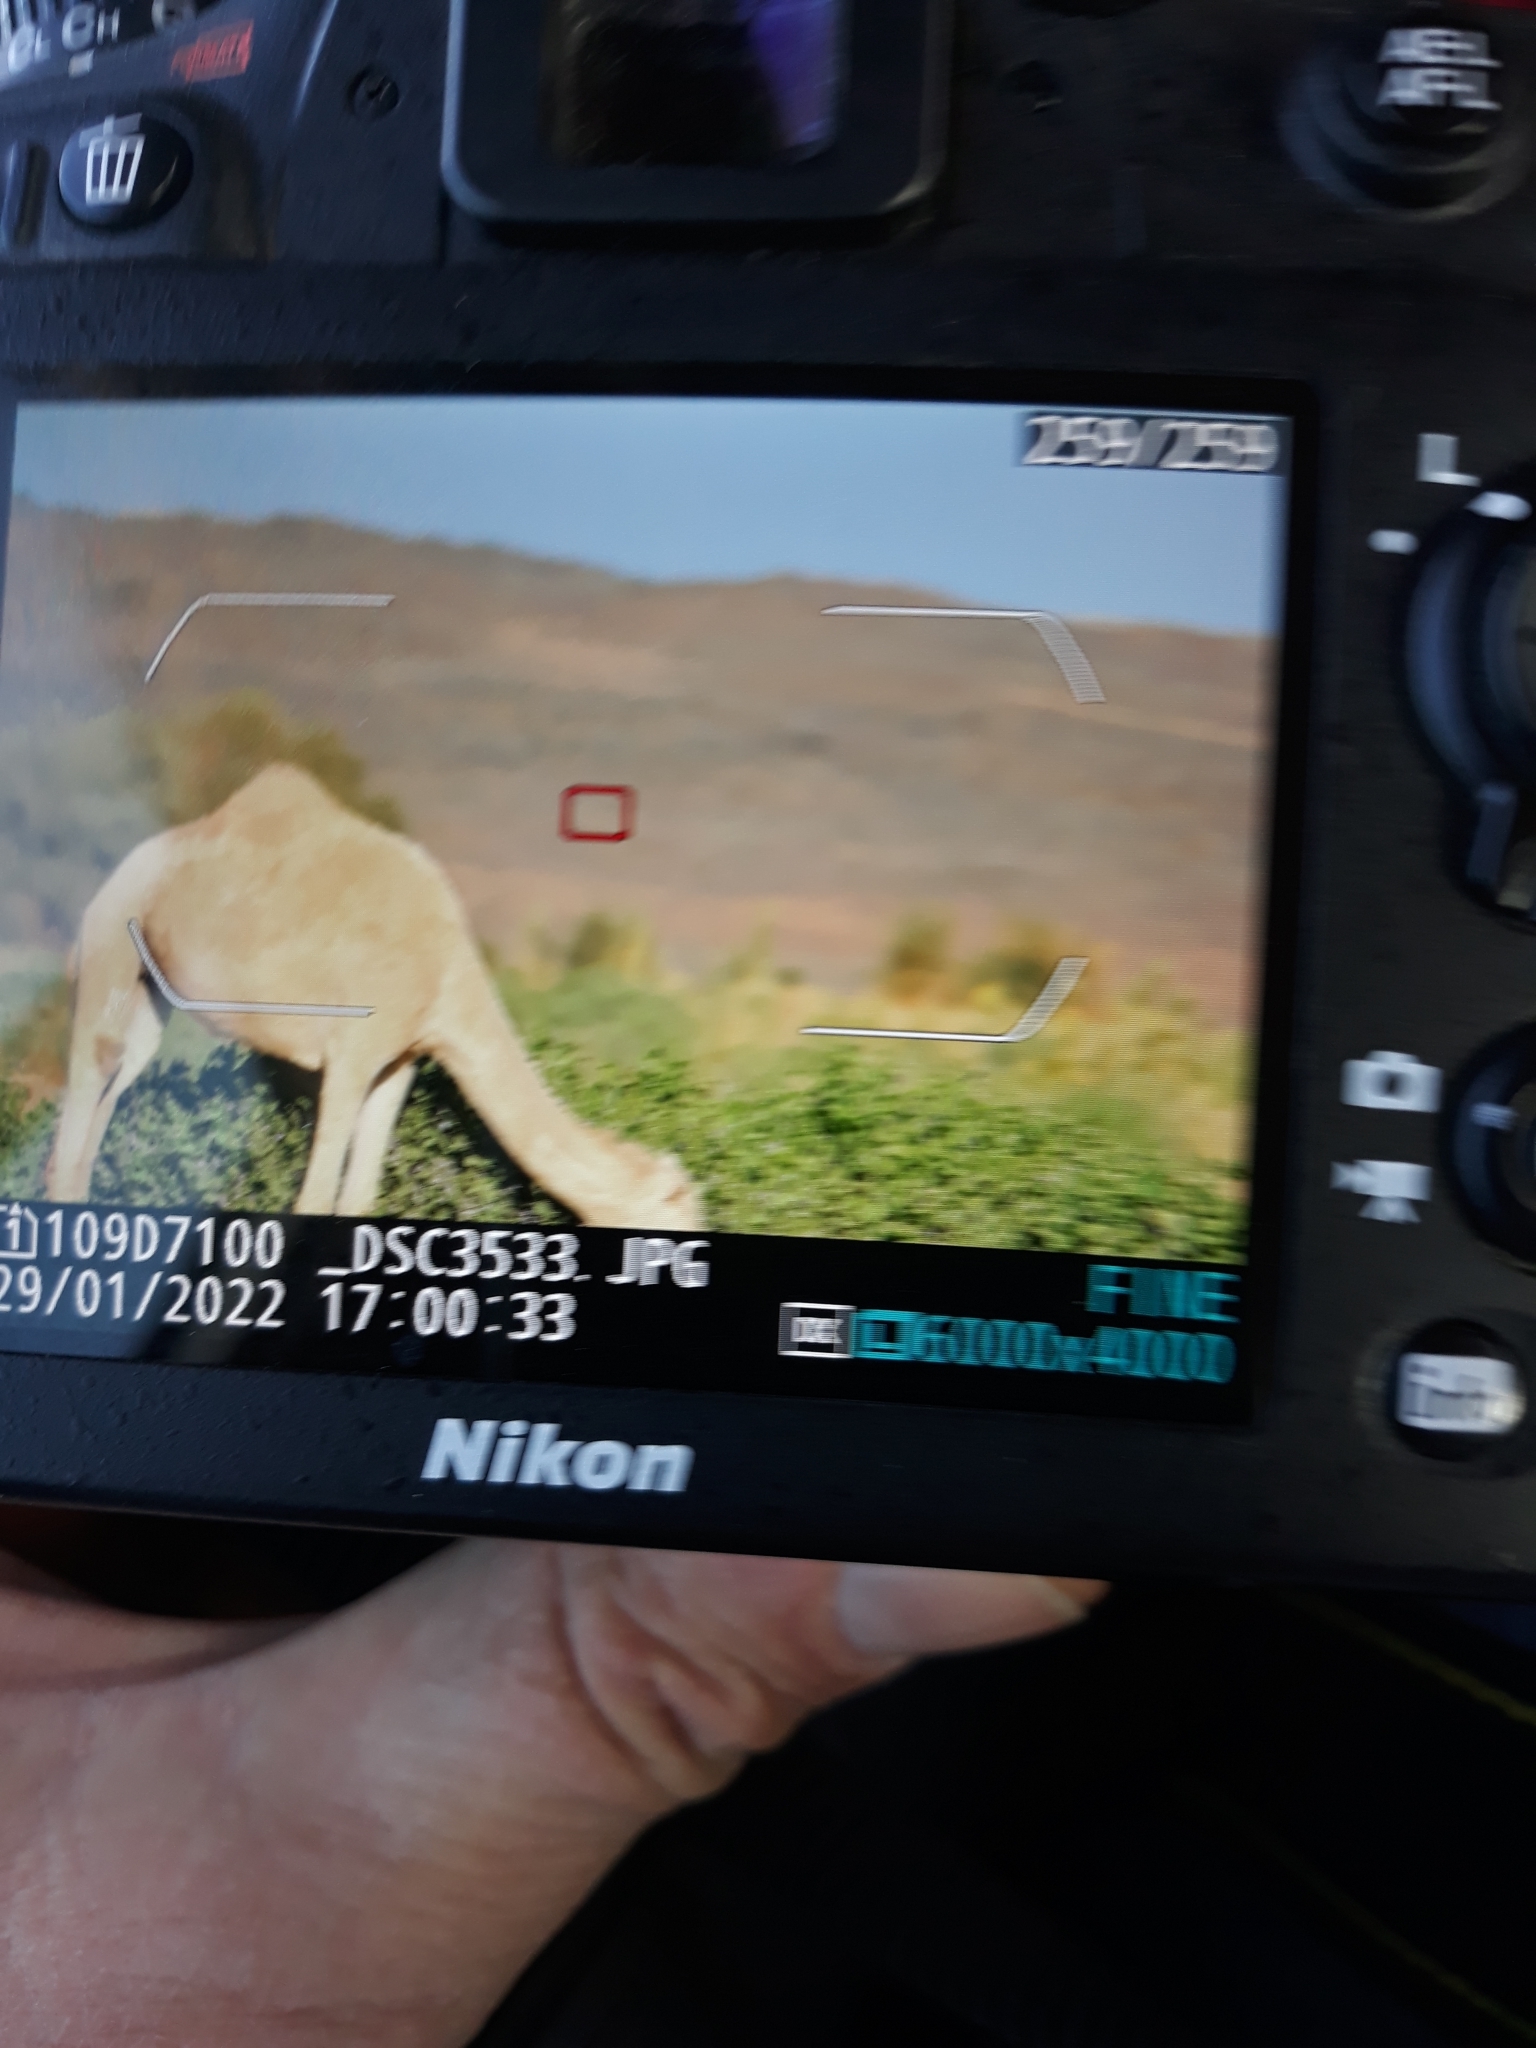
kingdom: Animalia
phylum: Chordata
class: Mammalia
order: Artiodactyla
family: Camelidae
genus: Camelus
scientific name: Camelus dromedarius
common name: One-humped camel
